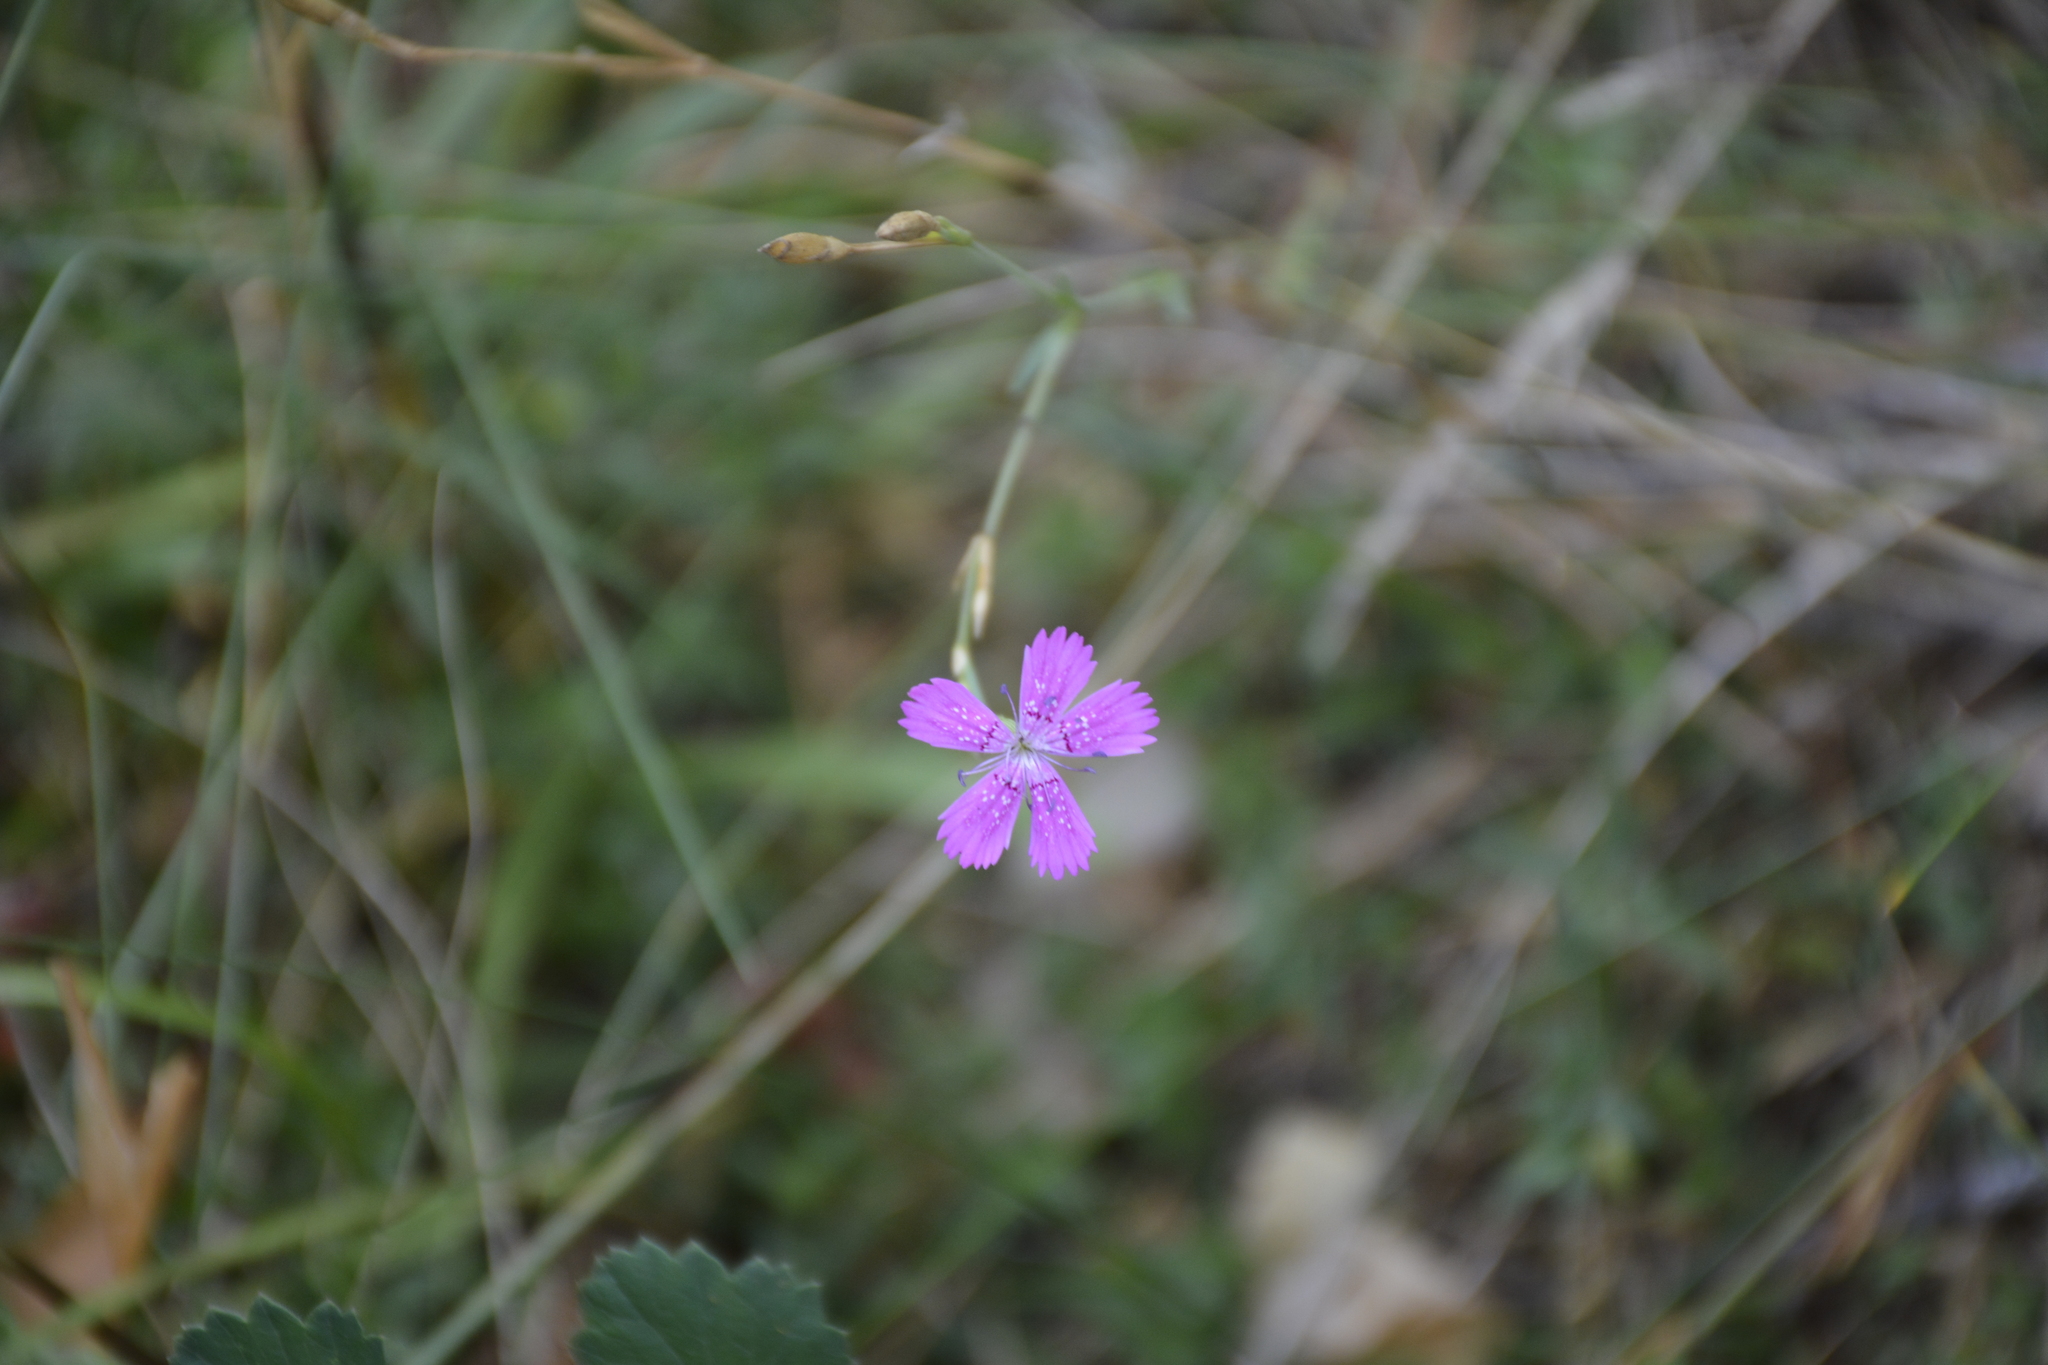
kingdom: Plantae
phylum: Tracheophyta
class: Magnoliopsida
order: Caryophyllales
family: Caryophyllaceae
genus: Dianthus
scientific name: Dianthus deltoides
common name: Maiden pink
